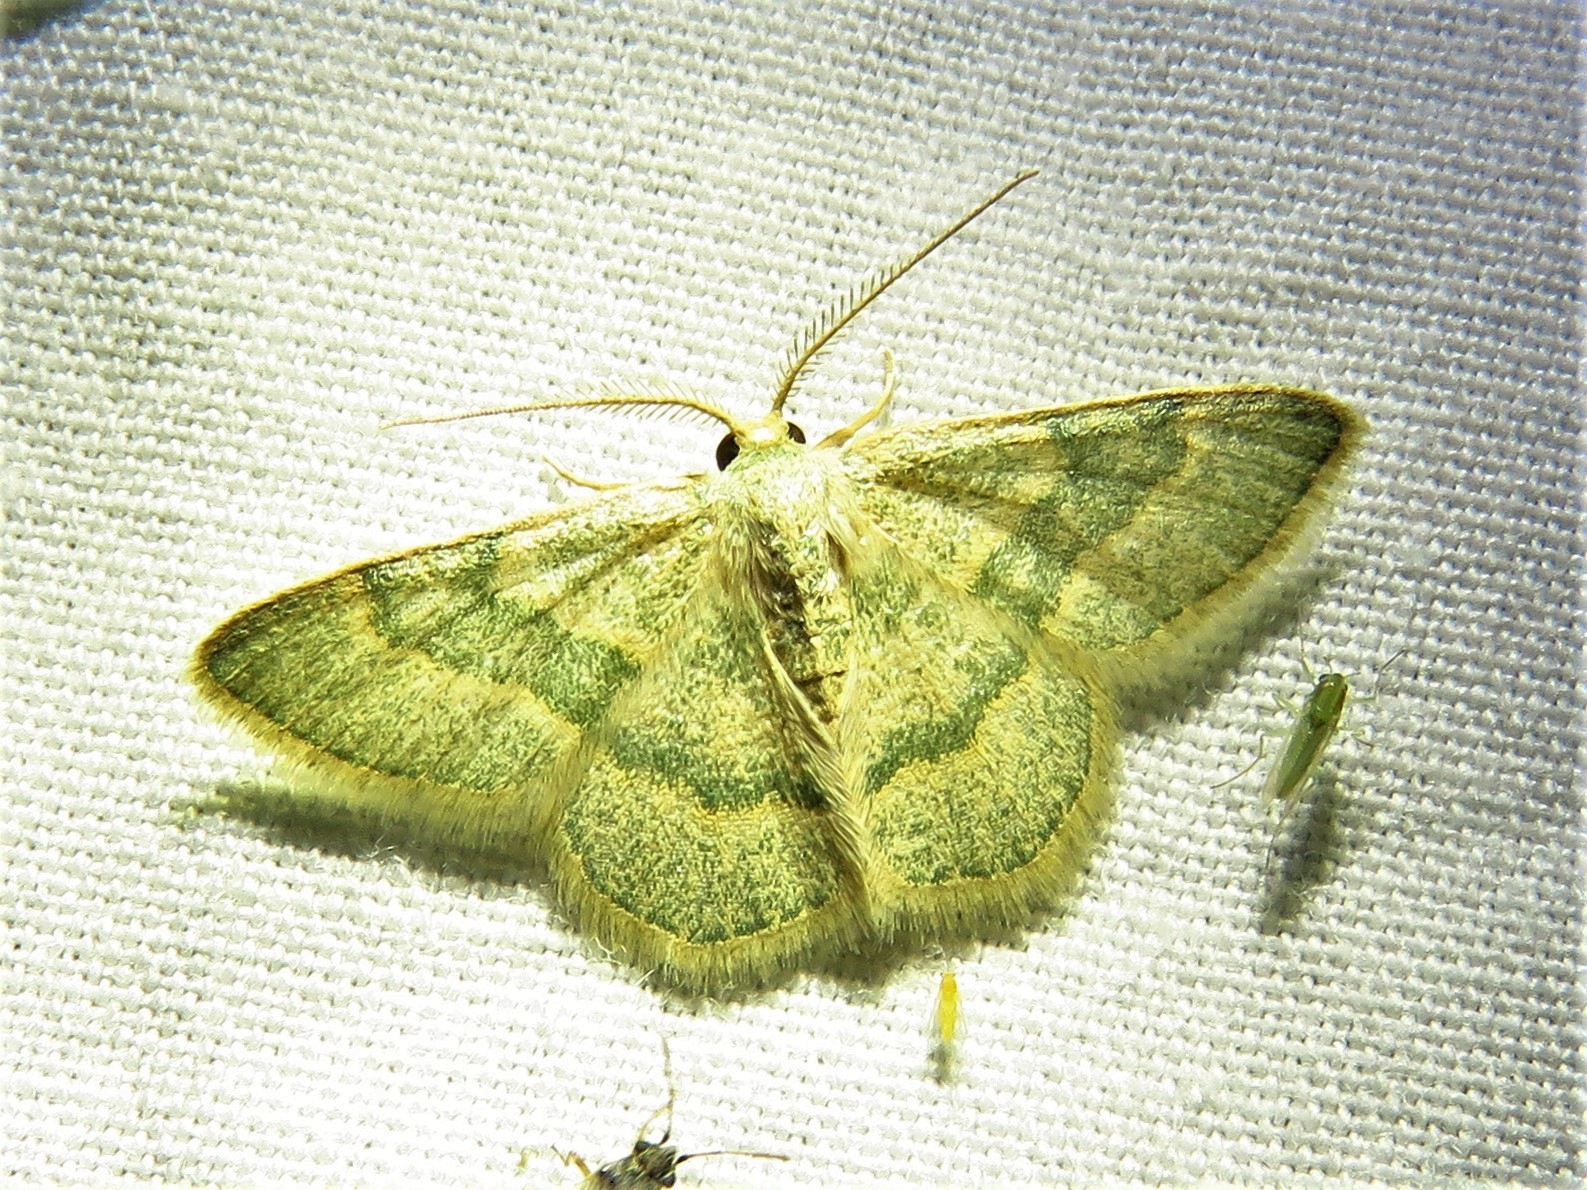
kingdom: Animalia
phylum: Arthropoda
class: Insecta
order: Lepidoptera
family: Geometridae
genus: Chlorochlamys
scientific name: Chlorochlamys appellaria
